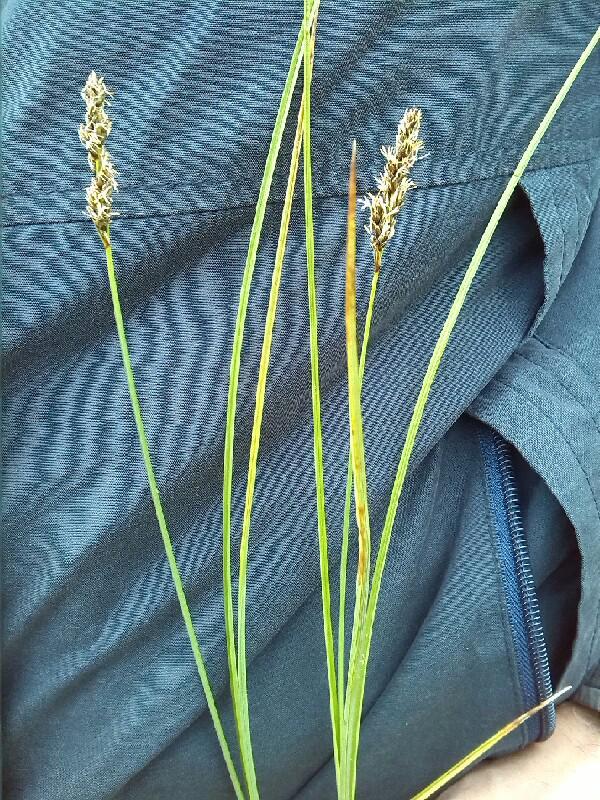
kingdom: Plantae
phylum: Tracheophyta
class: Liliopsida
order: Poales
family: Cyperaceae
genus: Carex
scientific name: Carex diandra
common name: Lesser tussock-sedge
